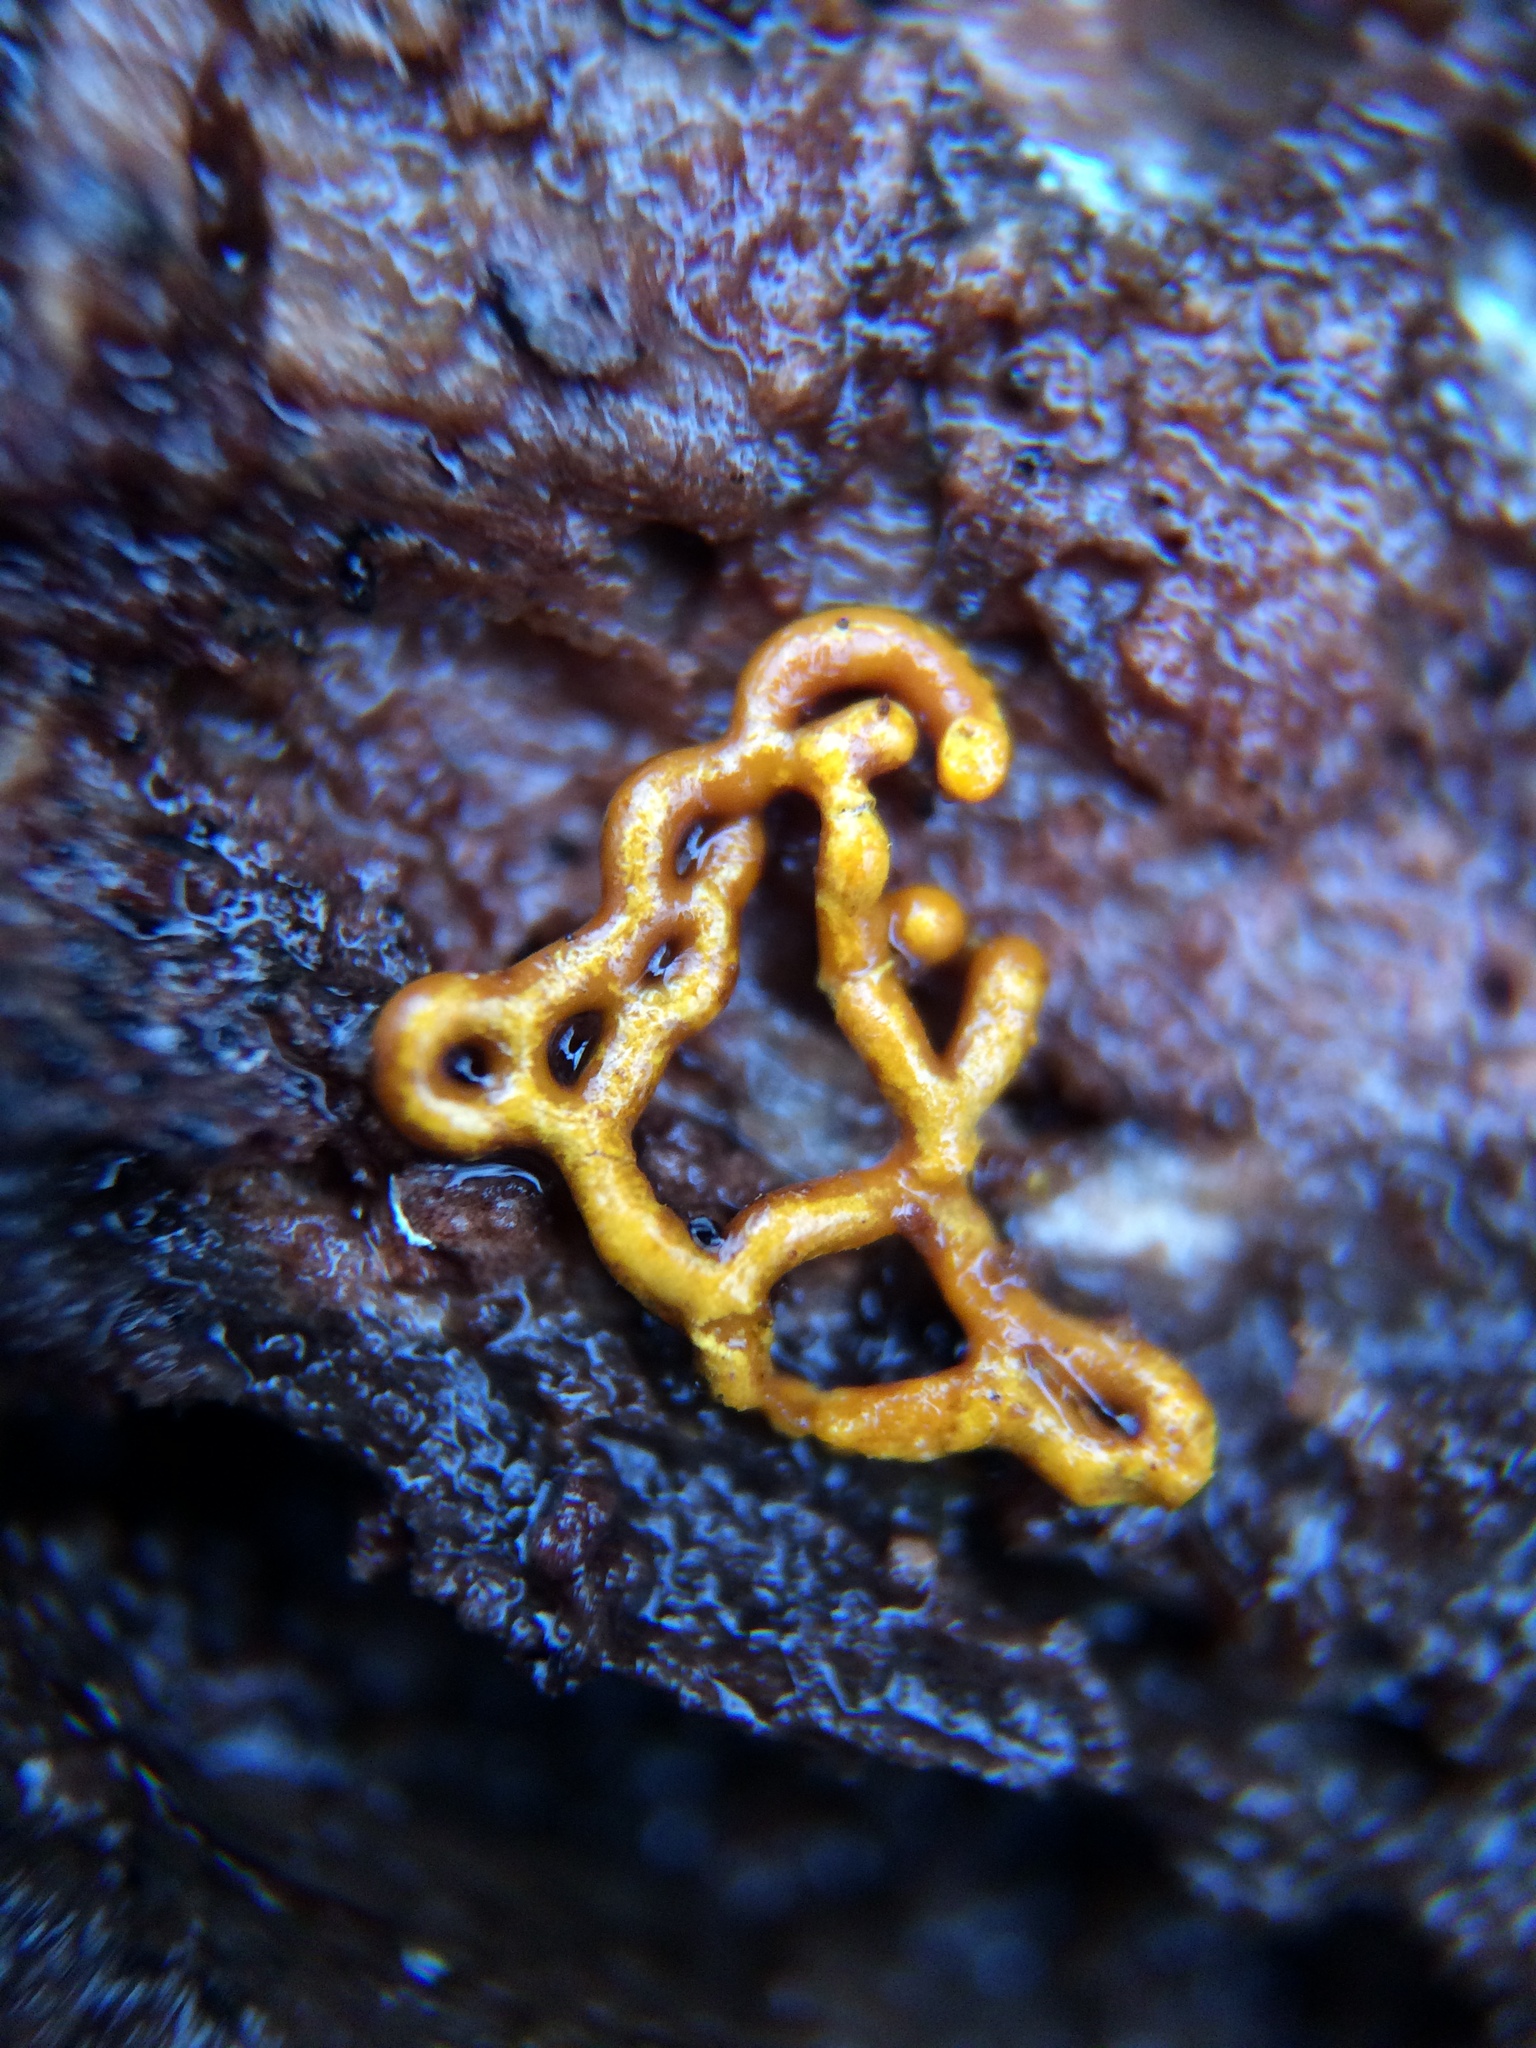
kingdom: Protozoa
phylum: Mycetozoa
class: Myxomycetes
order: Trichiales
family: Arcyriaceae
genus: Hemitrichia
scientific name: Hemitrichia serpula
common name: Pretzel slime mold
